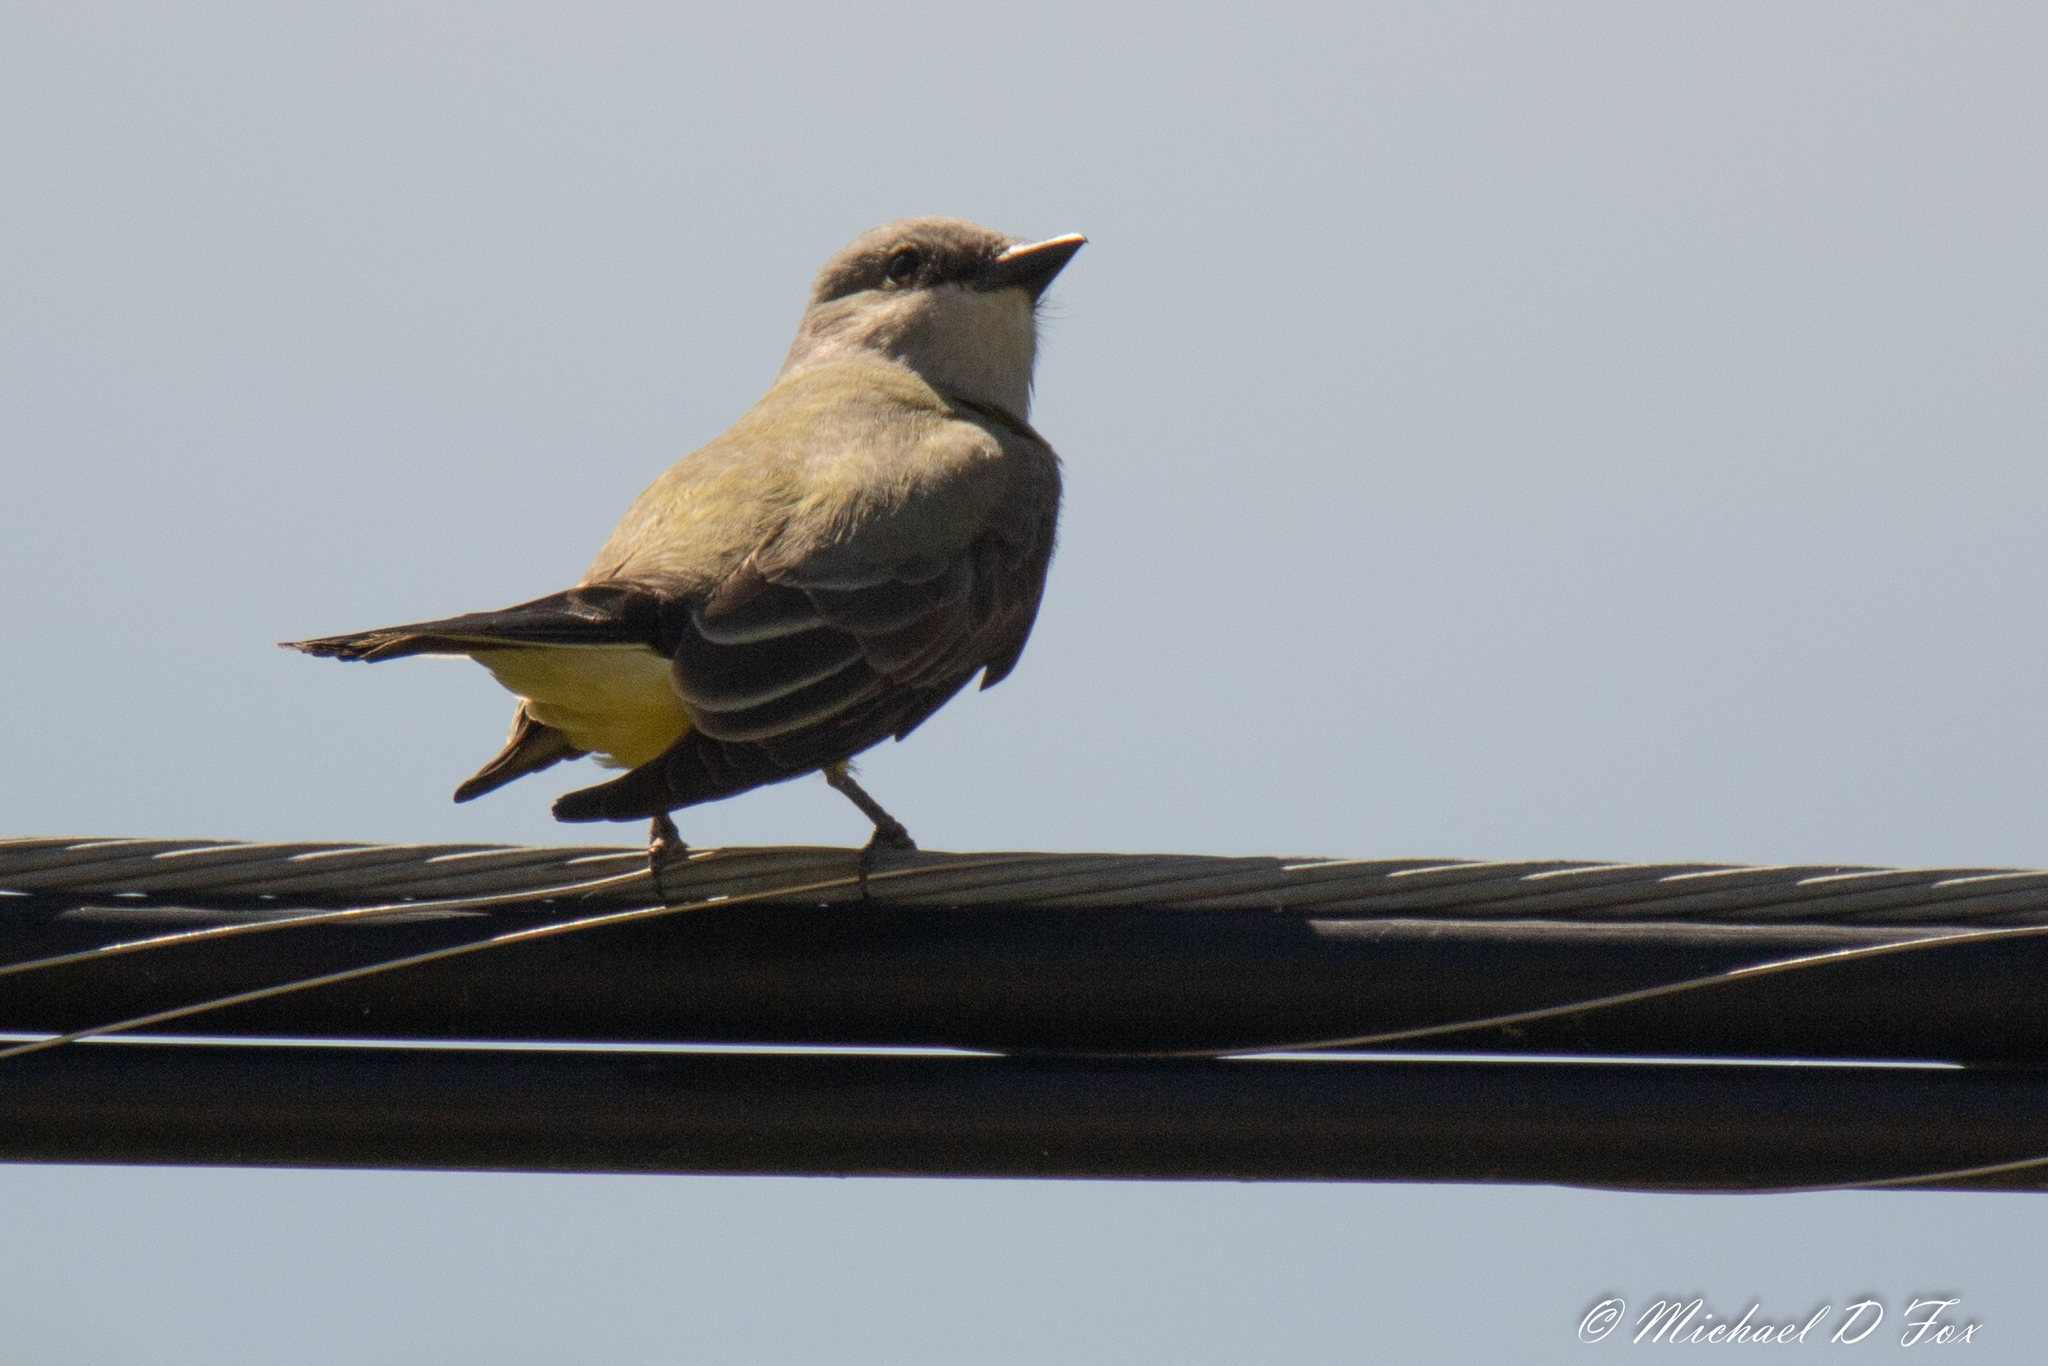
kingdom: Animalia
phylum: Chordata
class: Aves
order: Passeriformes
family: Tyrannidae
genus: Tyrannus
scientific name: Tyrannus verticalis
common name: Western kingbird
